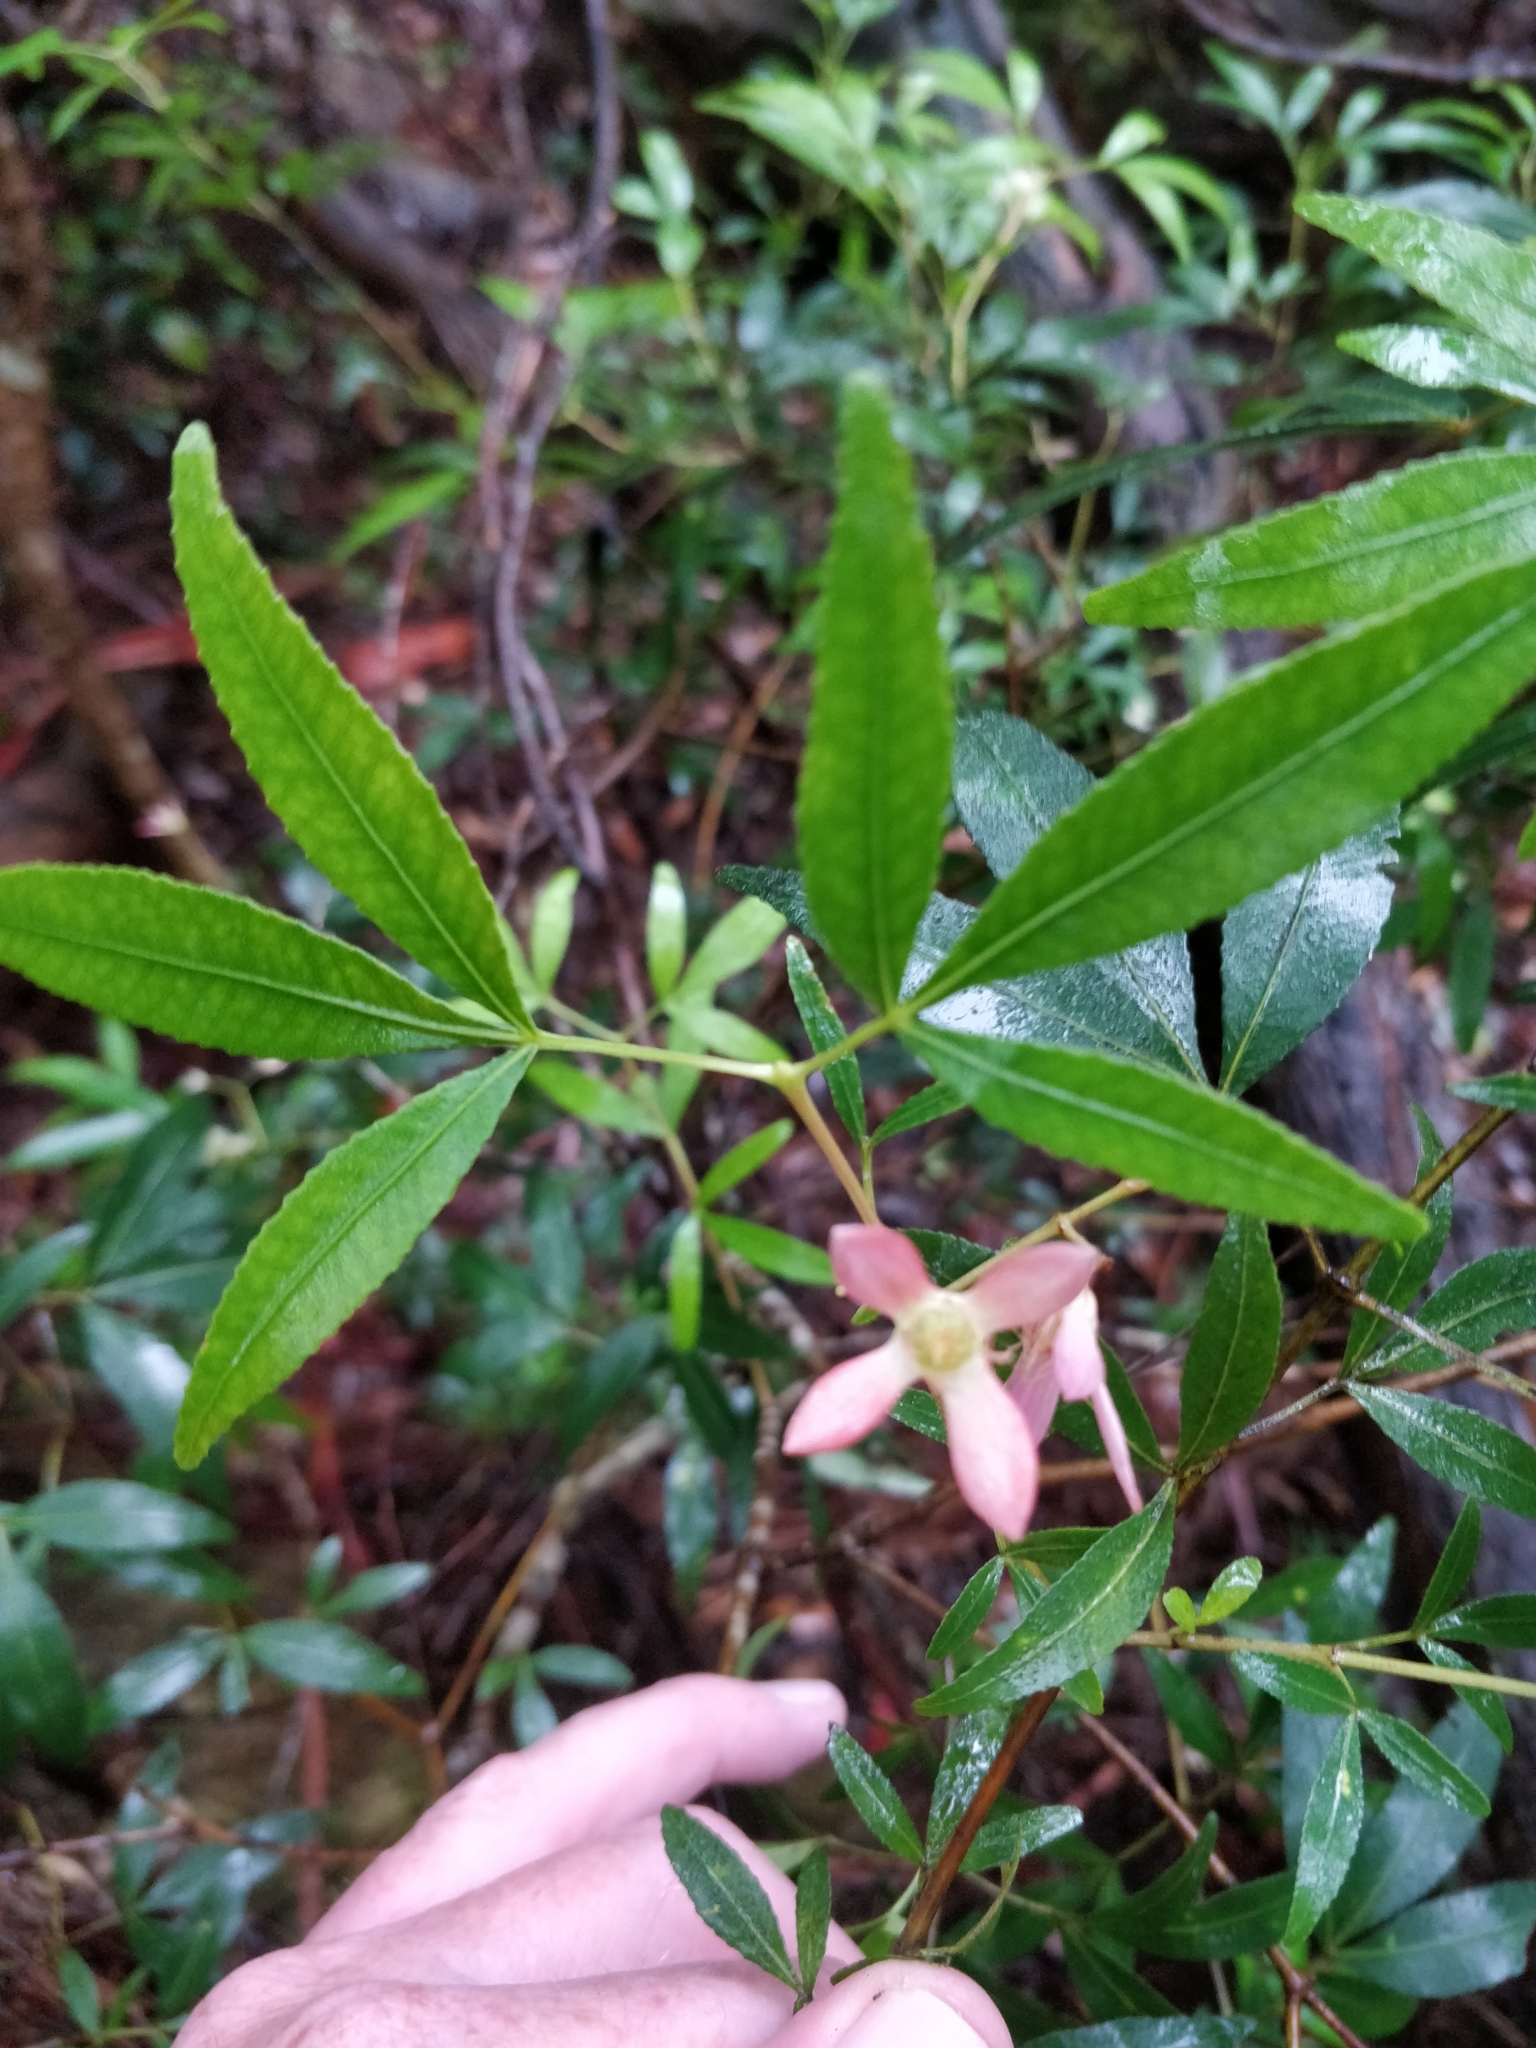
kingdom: Plantae
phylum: Tracheophyta
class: Magnoliopsida
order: Oxalidales
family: Cunoniaceae
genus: Ceratopetalum
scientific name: Ceratopetalum gummiferum
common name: Christmasbush
